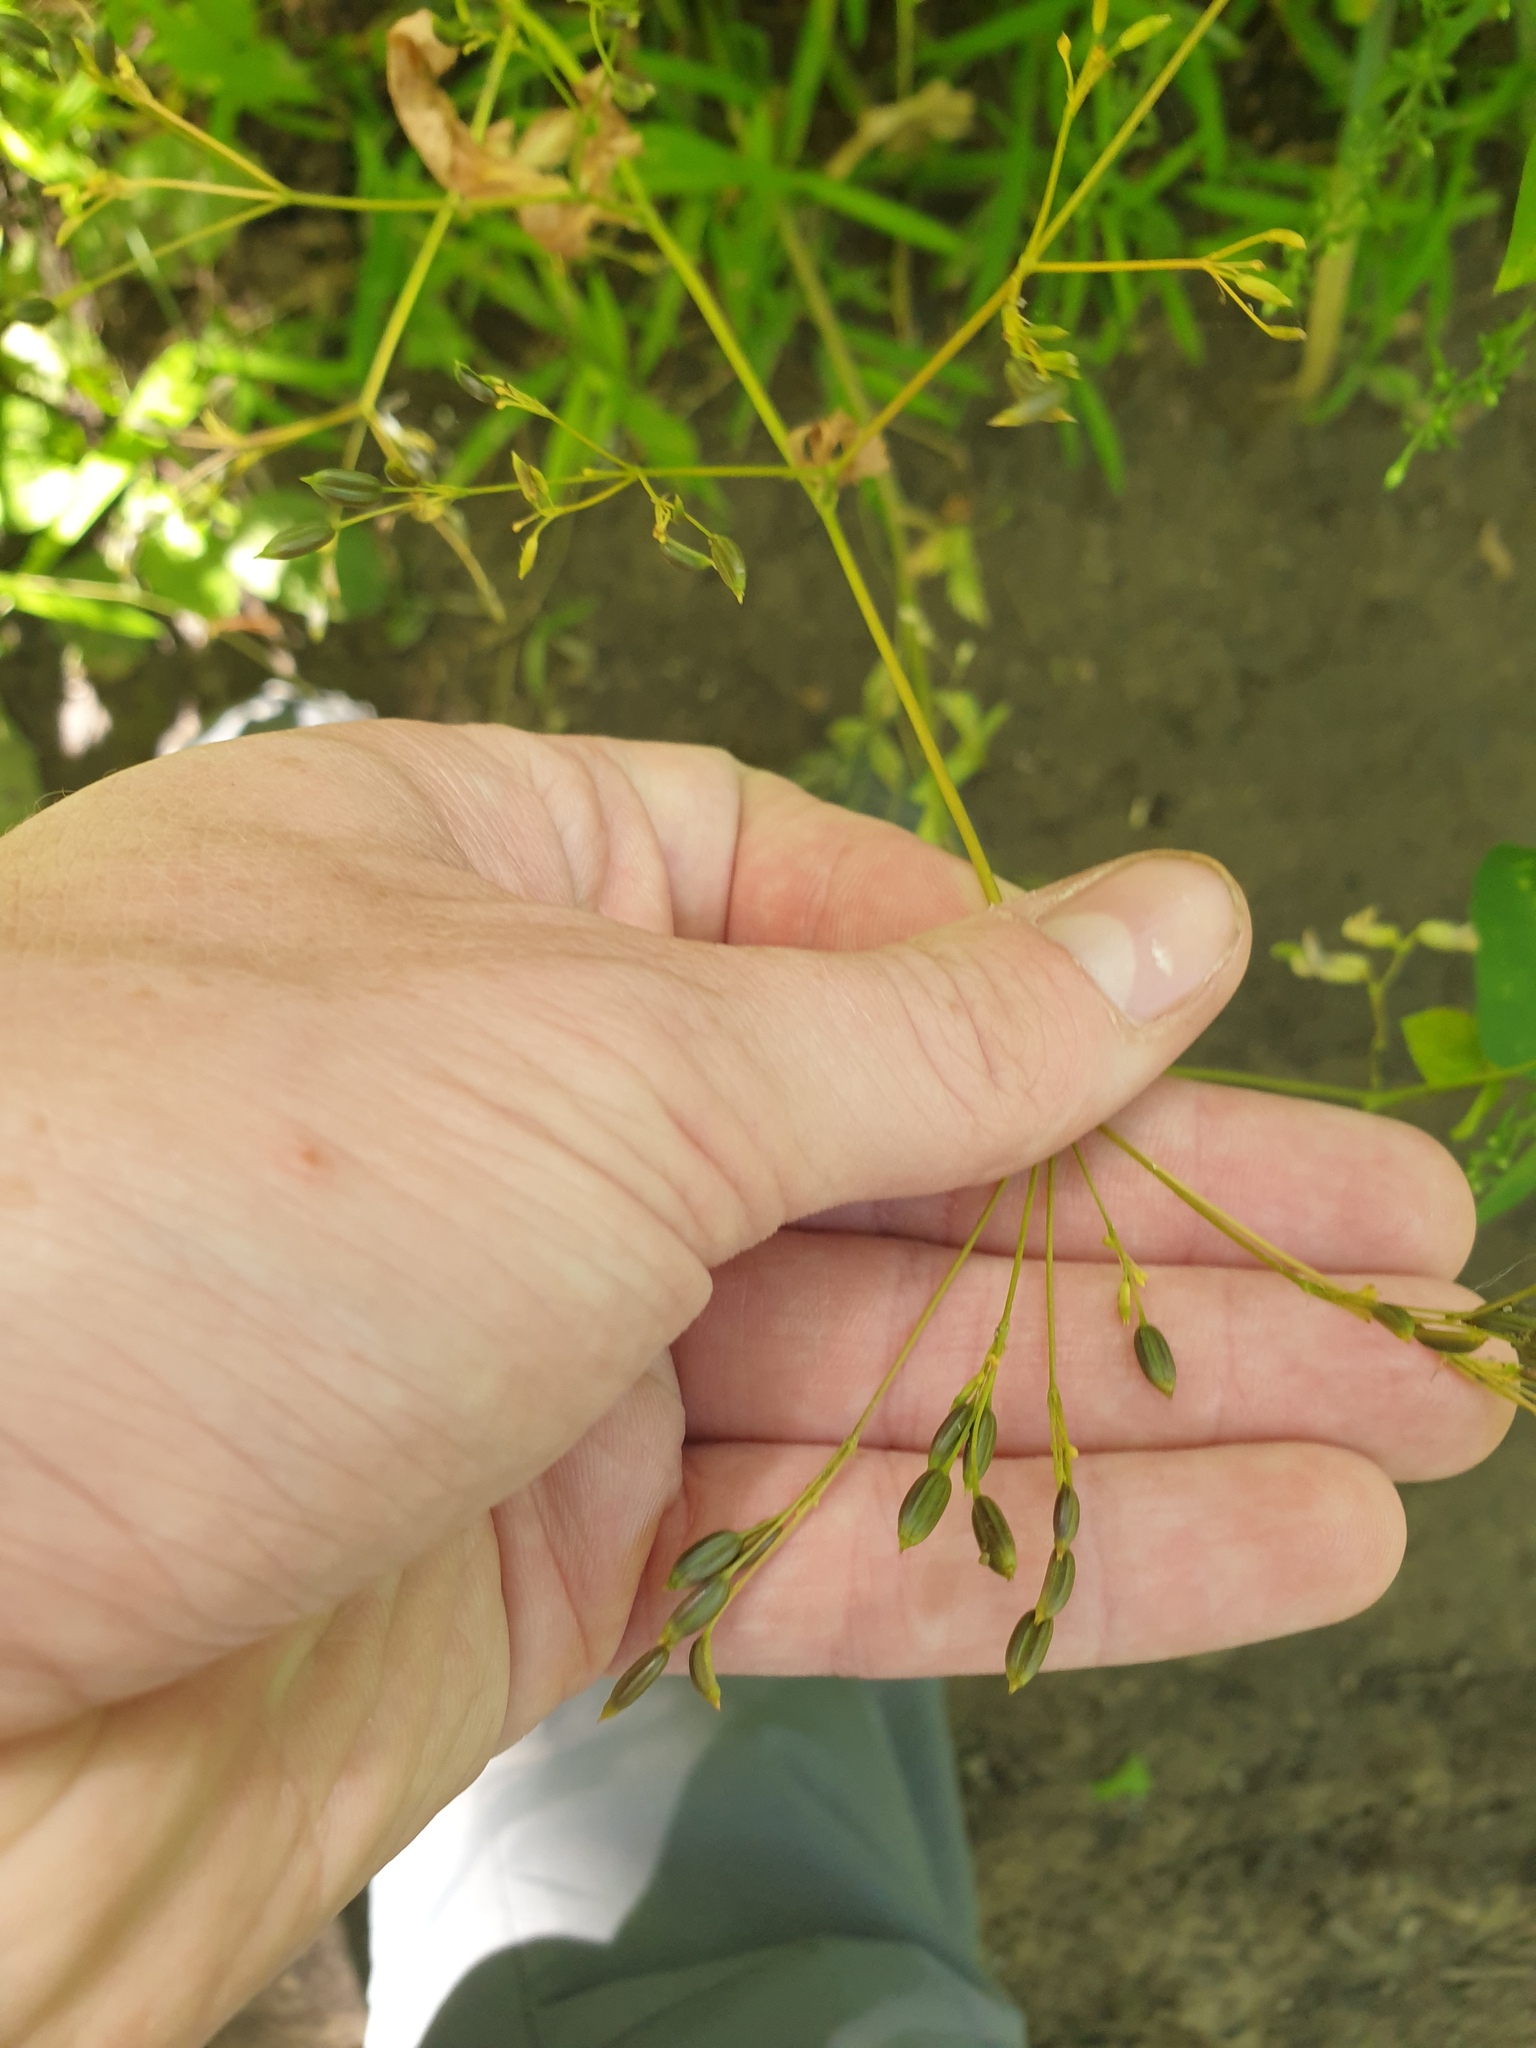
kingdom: Plantae
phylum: Tracheophyta
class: Magnoliopsida
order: Apiales
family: Apiaceae
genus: Cryptotaenia
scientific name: Cryptotaenia canadensis
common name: Honewort
